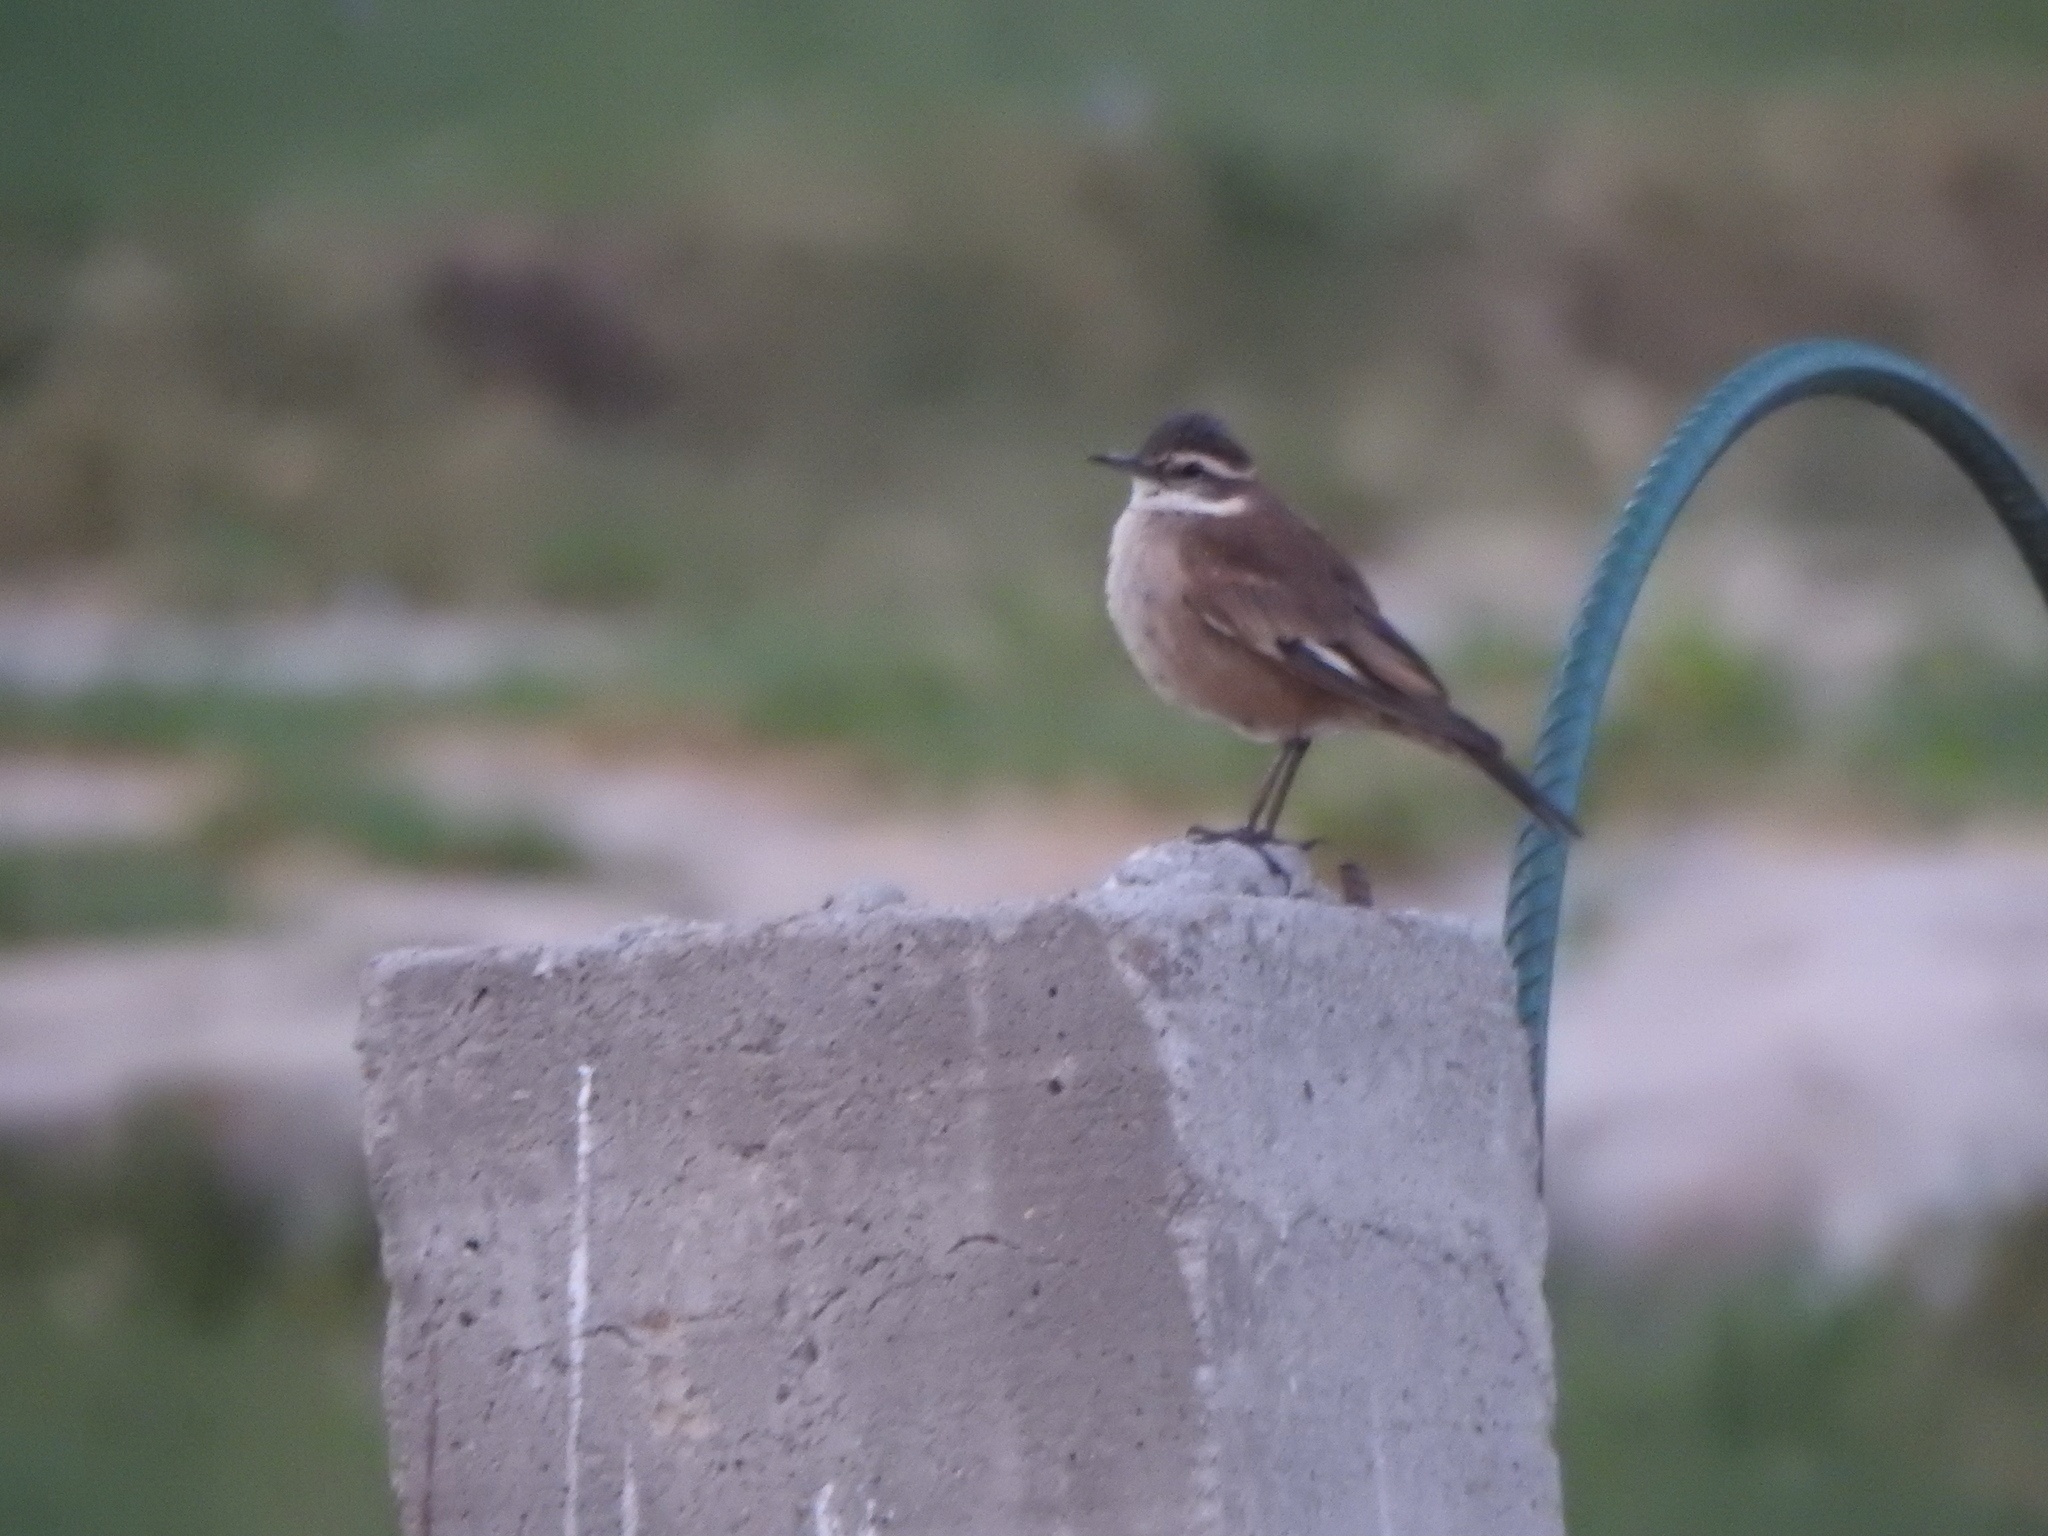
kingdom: Animalia
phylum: Chordata
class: Aves
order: Passeriformes
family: Furnariidae
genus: Cinclodes
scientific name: Cinclodes fuscus
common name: Buff-winged cinclodes
